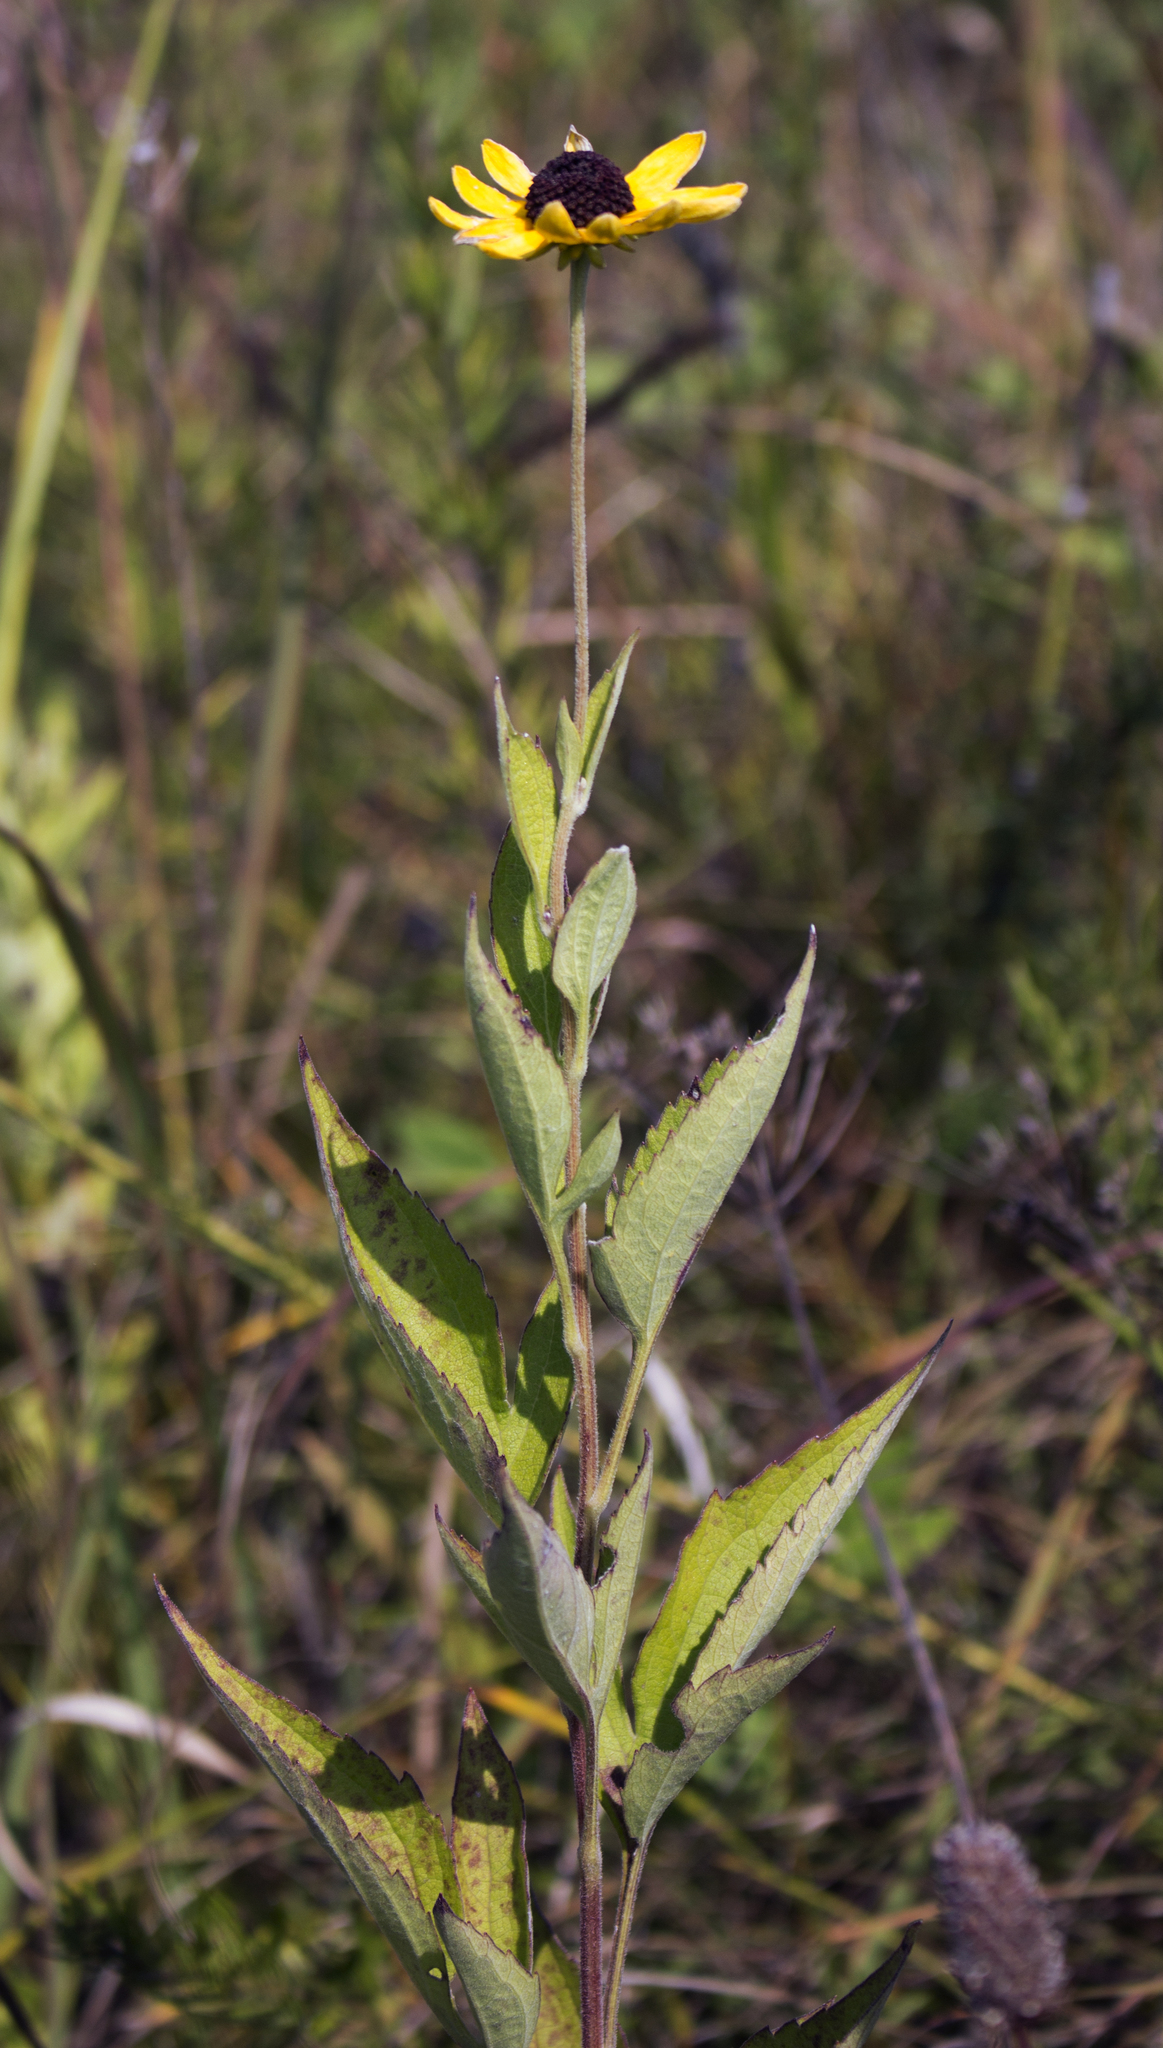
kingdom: Plantae
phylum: Tracheophyta
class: Magnoliopsida
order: Asterales
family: Asteraceae
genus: Rudbeckia
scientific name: Rudbeckia subtomentosa
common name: Sweet coneflower
